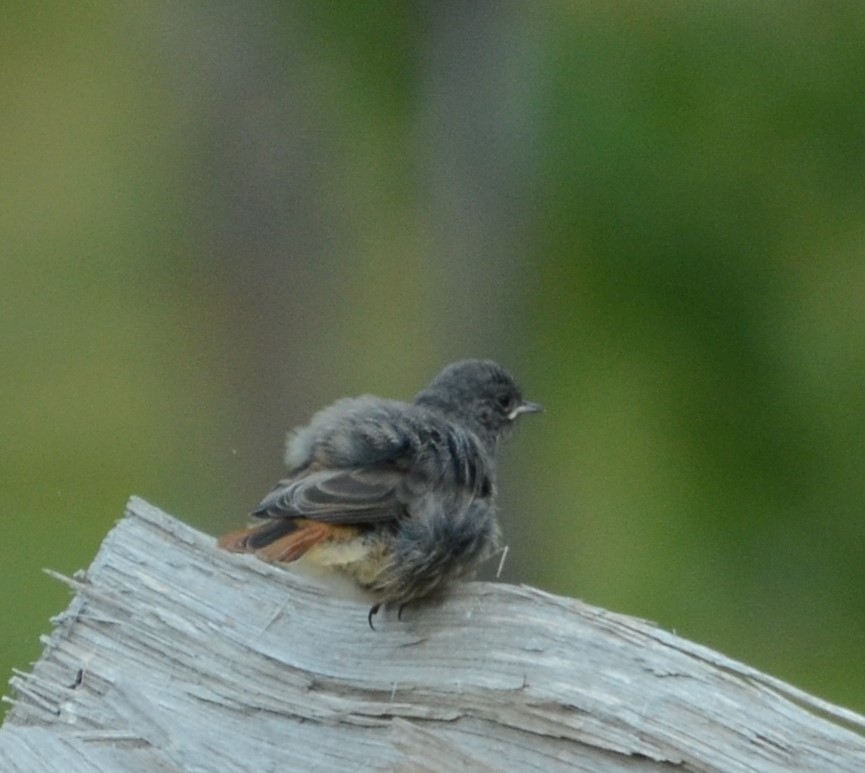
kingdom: Animalia
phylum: Chordata
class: Aves
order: Passeriformes
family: Muscicapidae
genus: Phoenicurus
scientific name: Phoenicurus ochruros
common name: Black redstart
